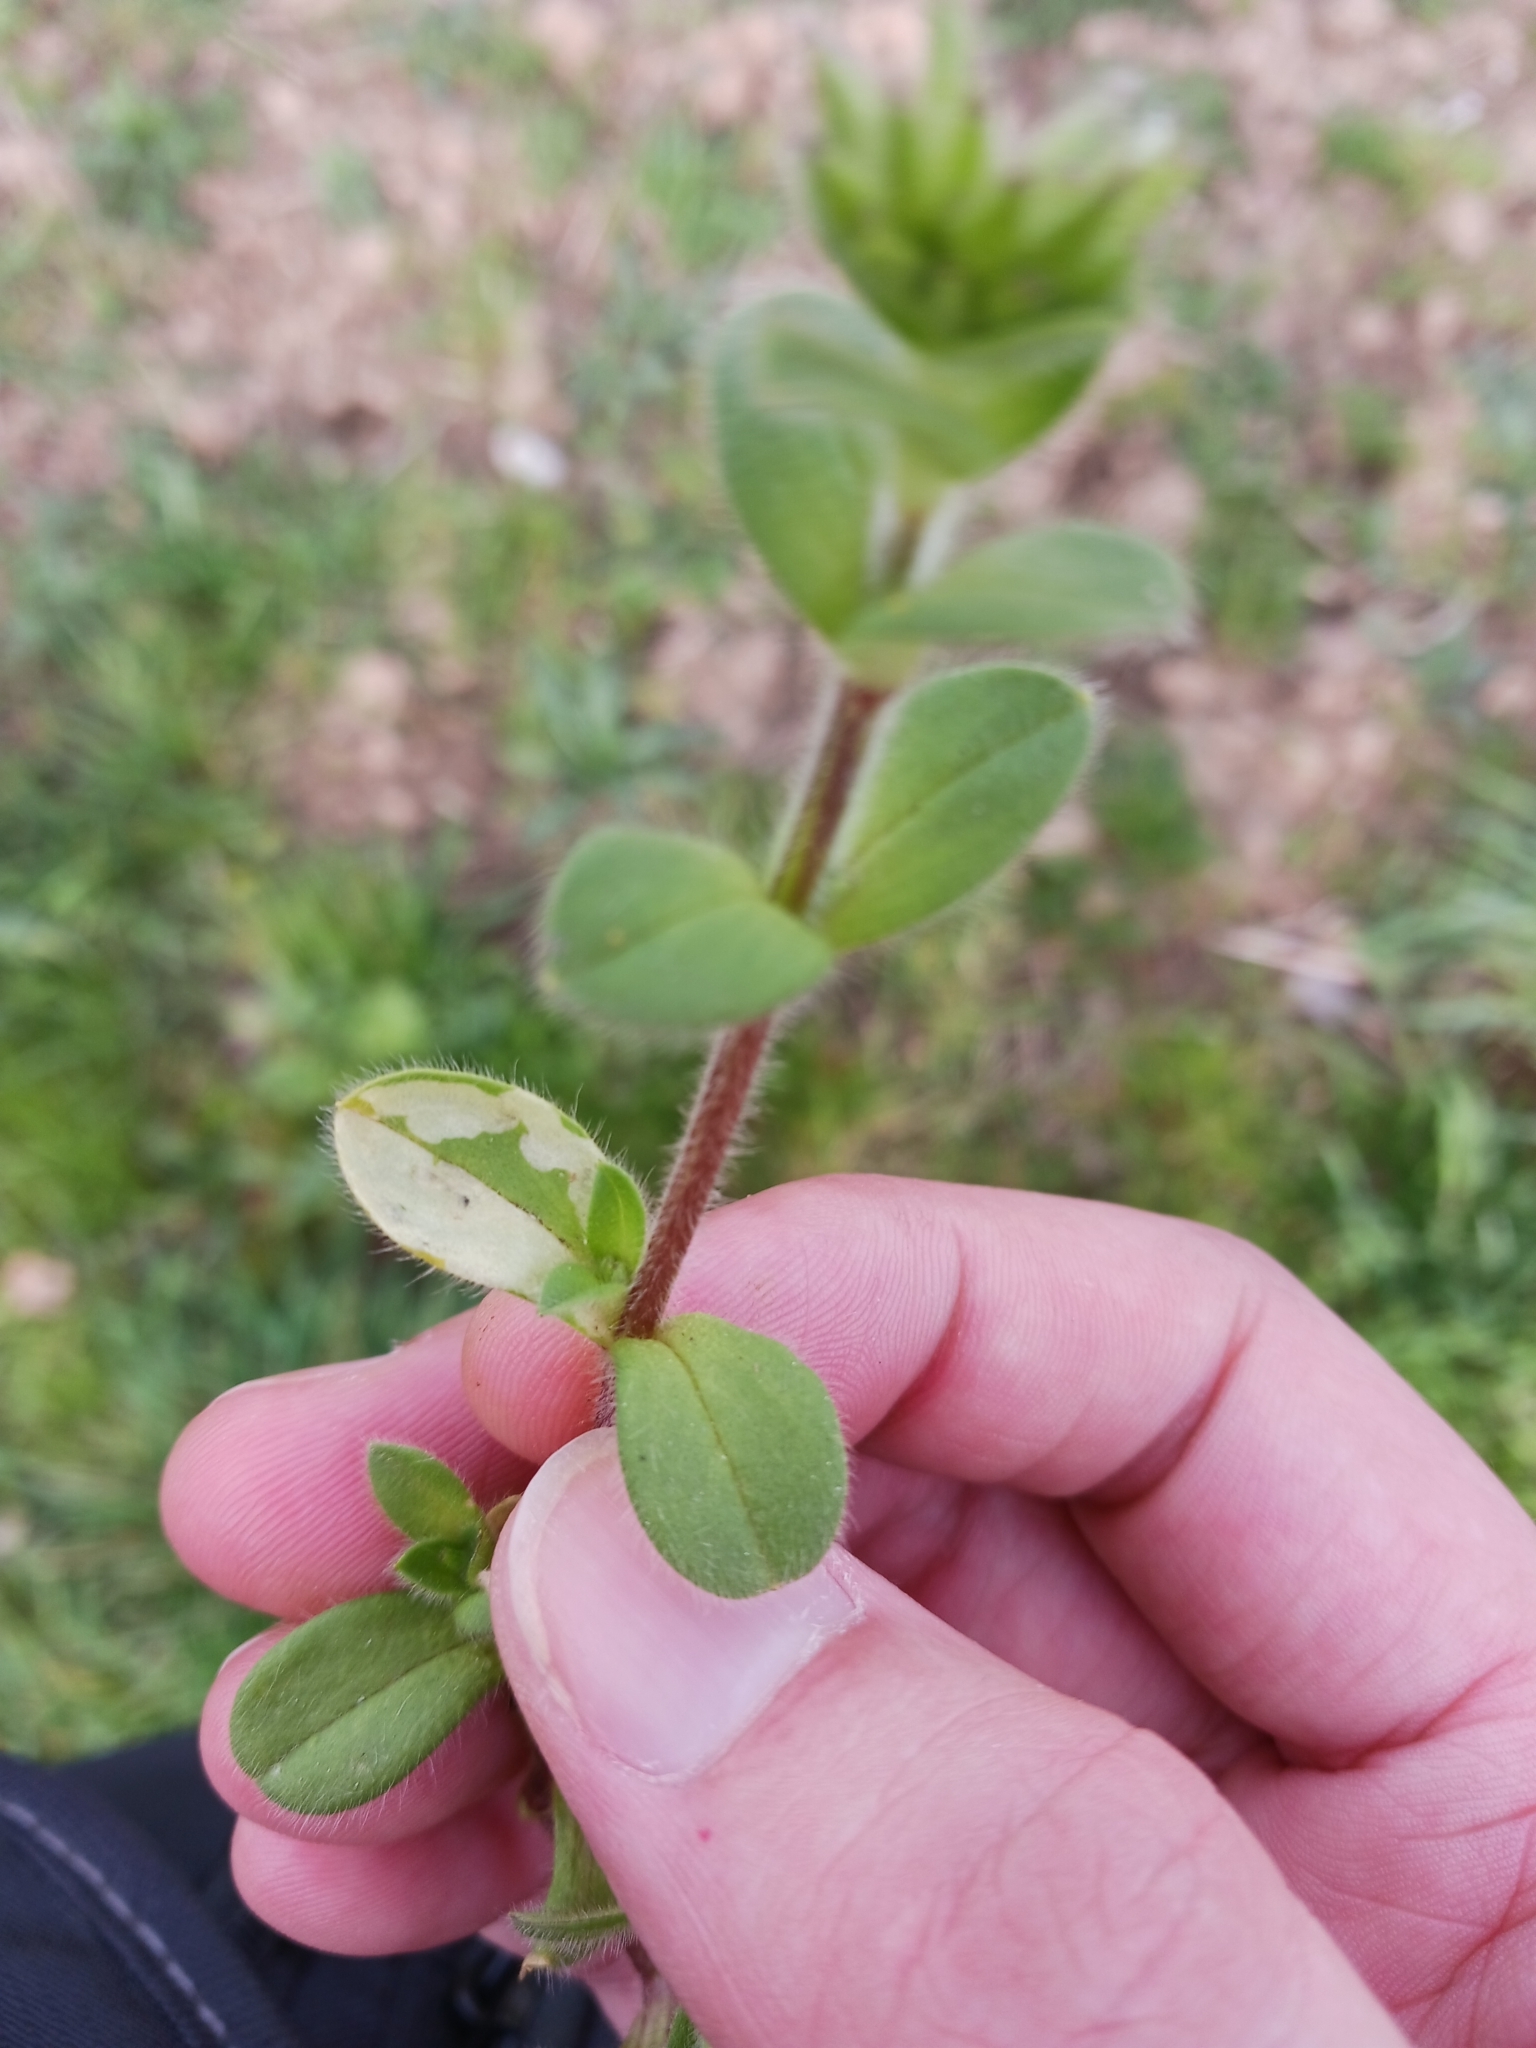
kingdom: Animalia
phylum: Arthropoda
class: Insecta
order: Diptera
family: Drosophilidae
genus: Scaptomyza
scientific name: Scaptomyza graminum
